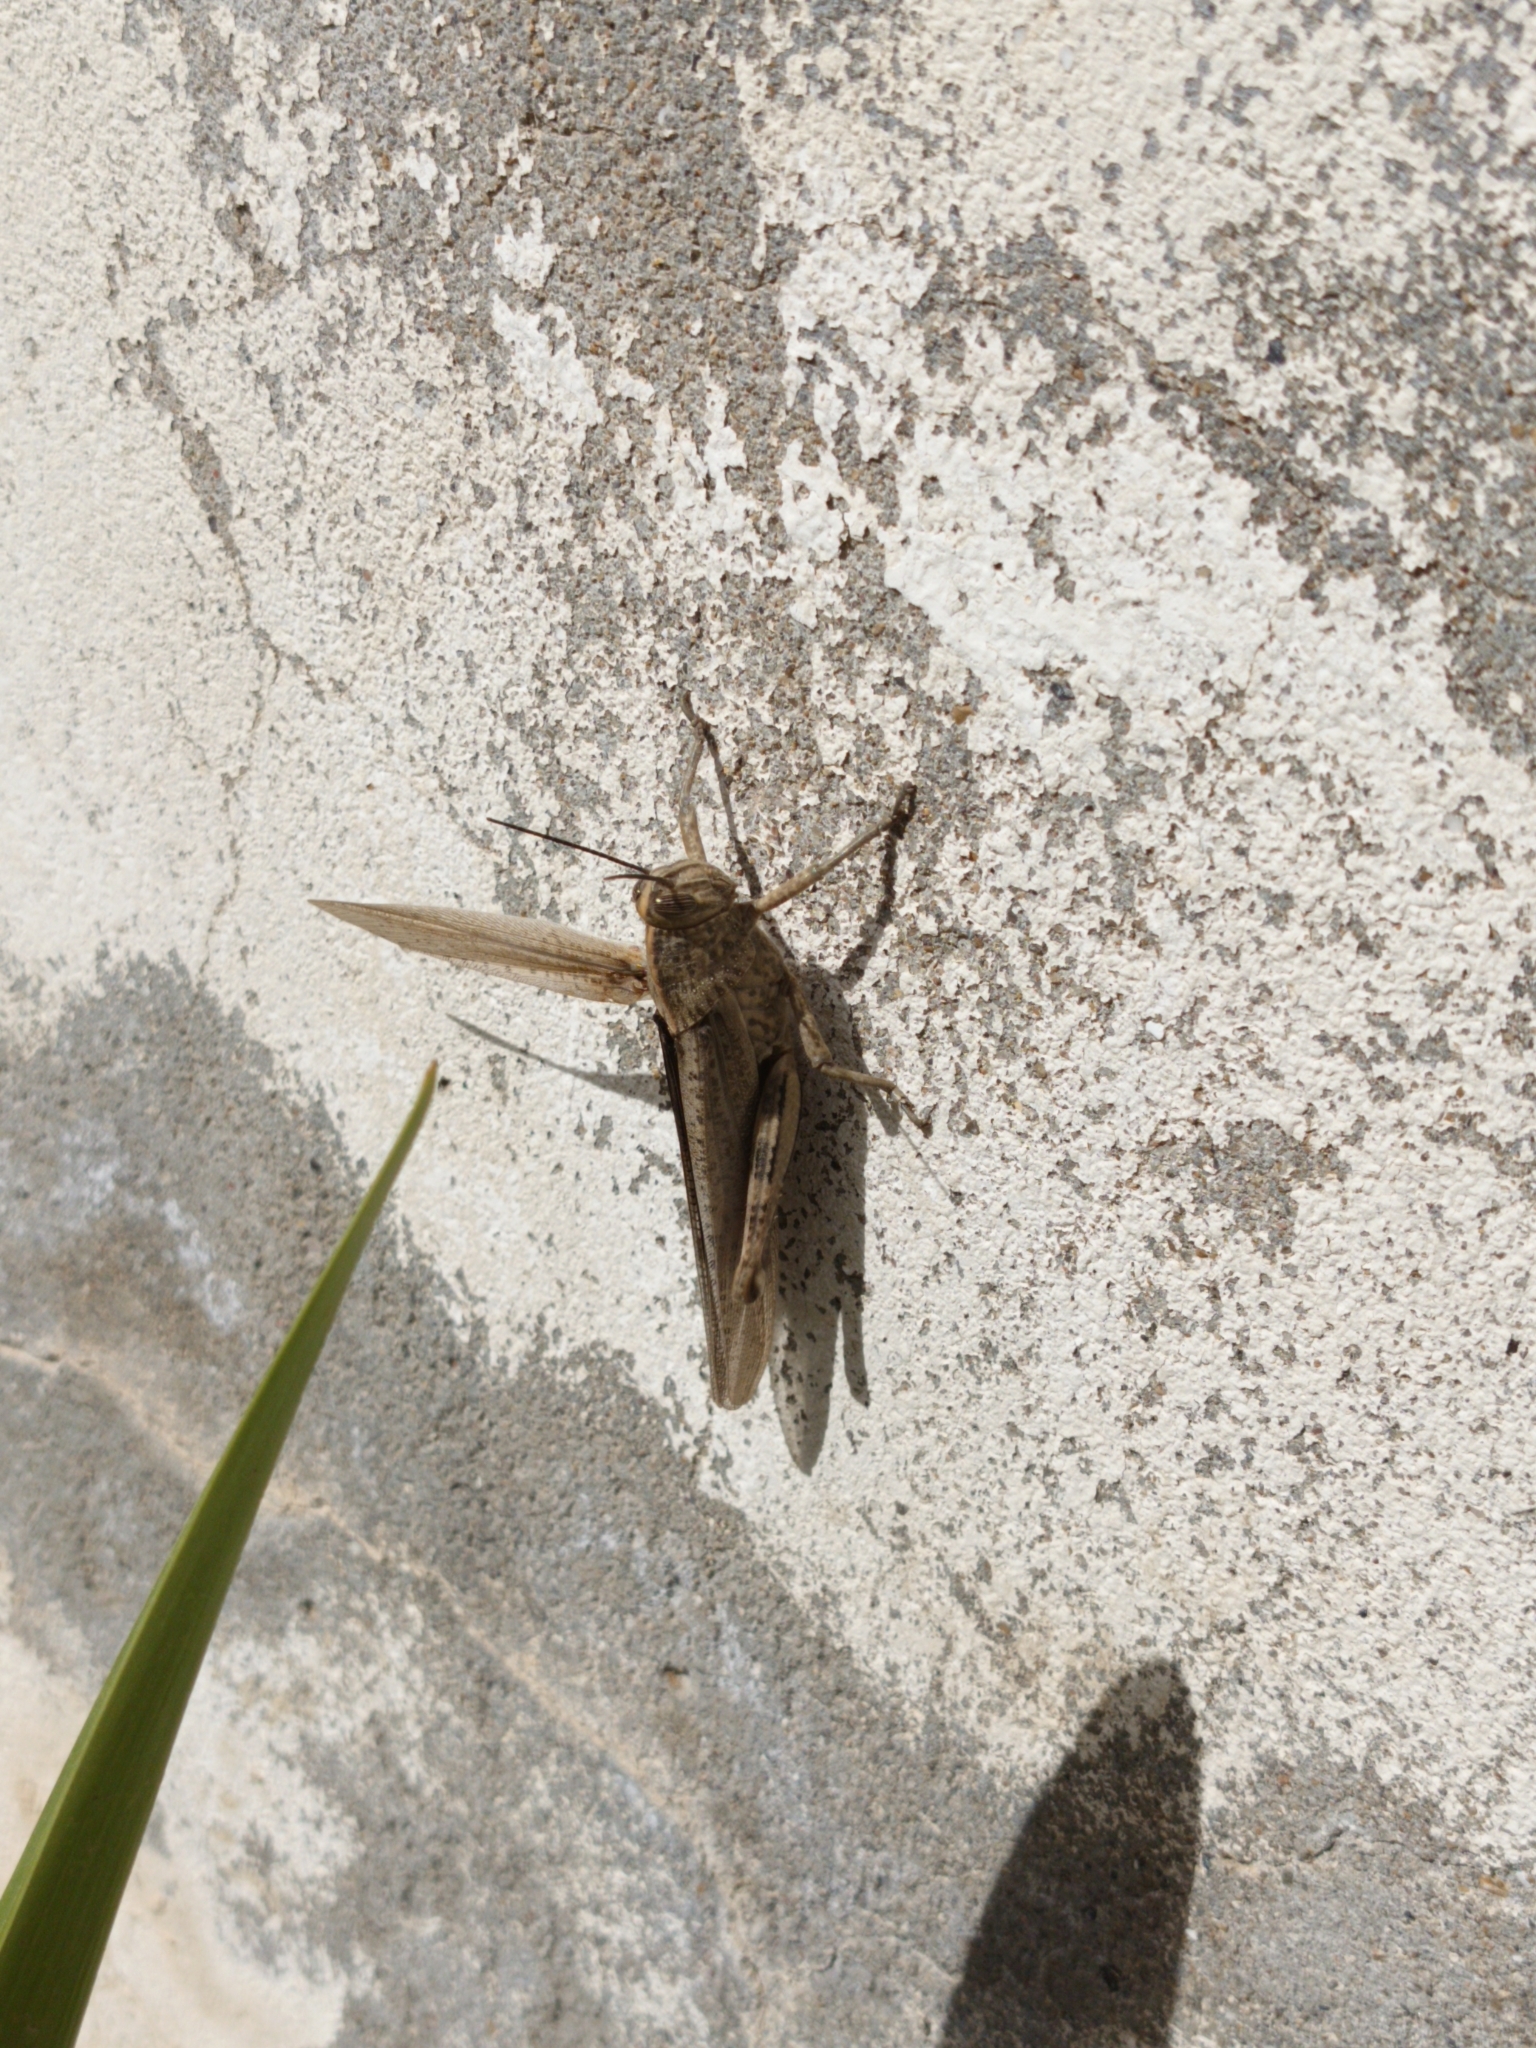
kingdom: Animalia
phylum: Arthropoda
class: Insecta
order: Orthoptera
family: Acrididae
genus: Anacridium
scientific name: Anacridium aegyptium
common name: Egyptian grasshopper
